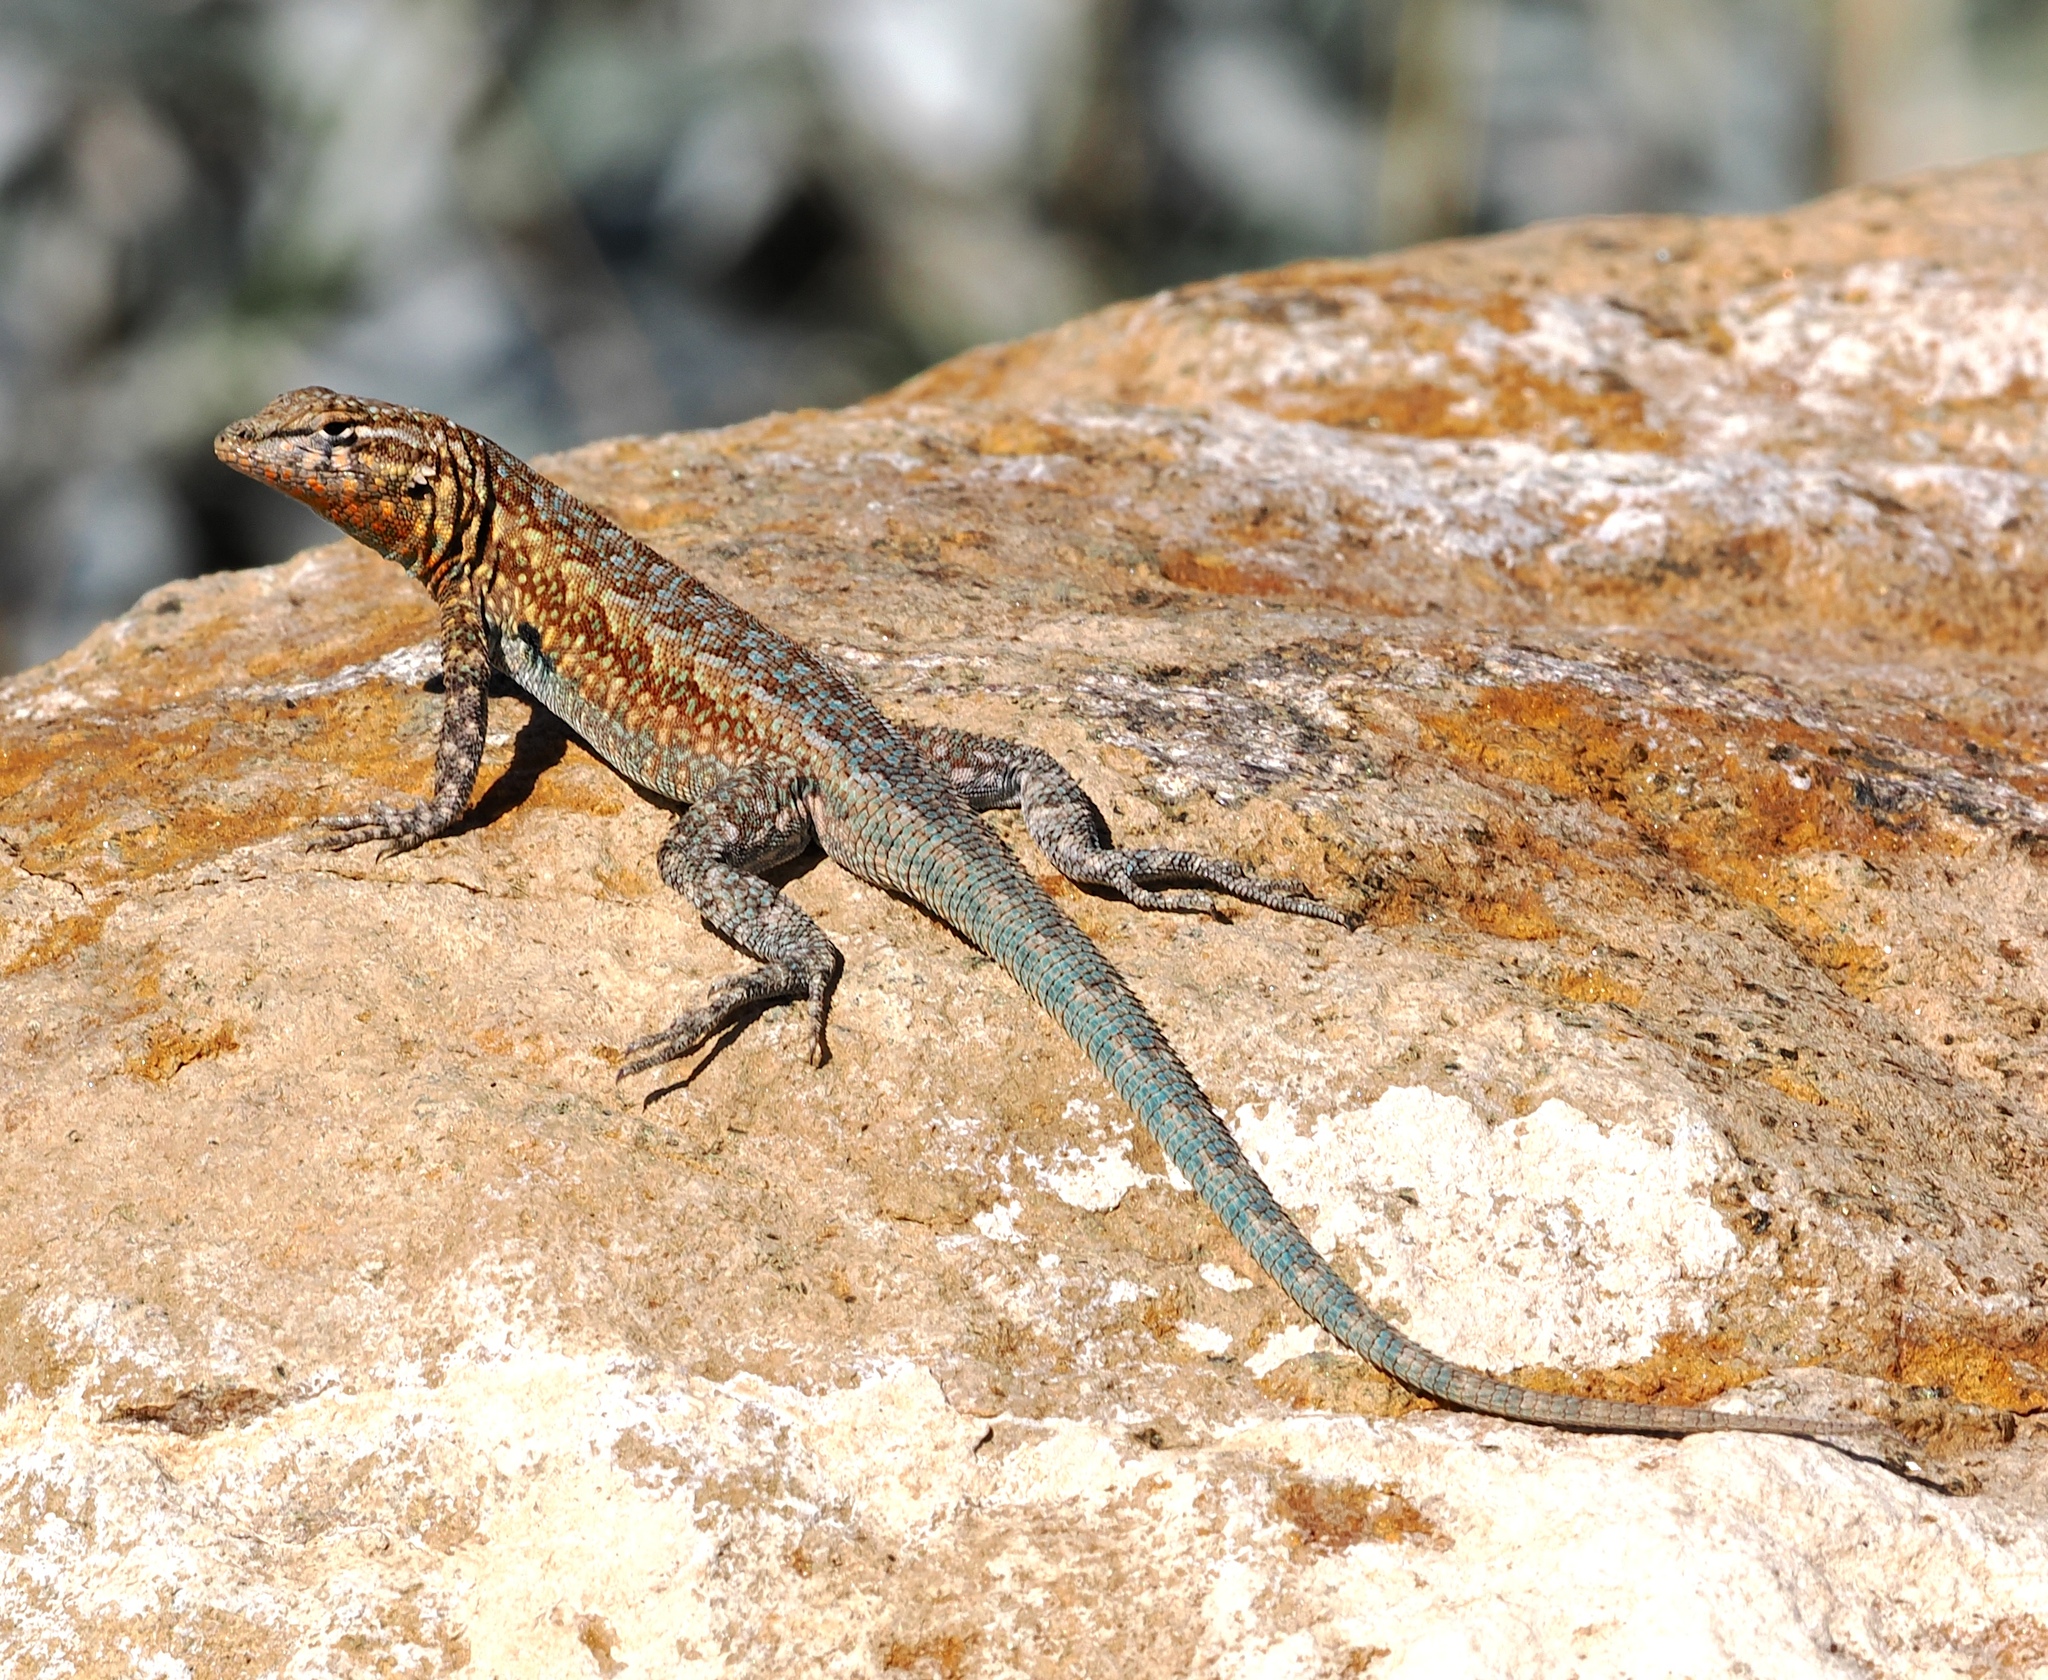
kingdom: Animalia
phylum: Chordata
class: Squamata
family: Phrynosomatidae
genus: Uta
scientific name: Uta stansburiana
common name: Side-blotched lizard
